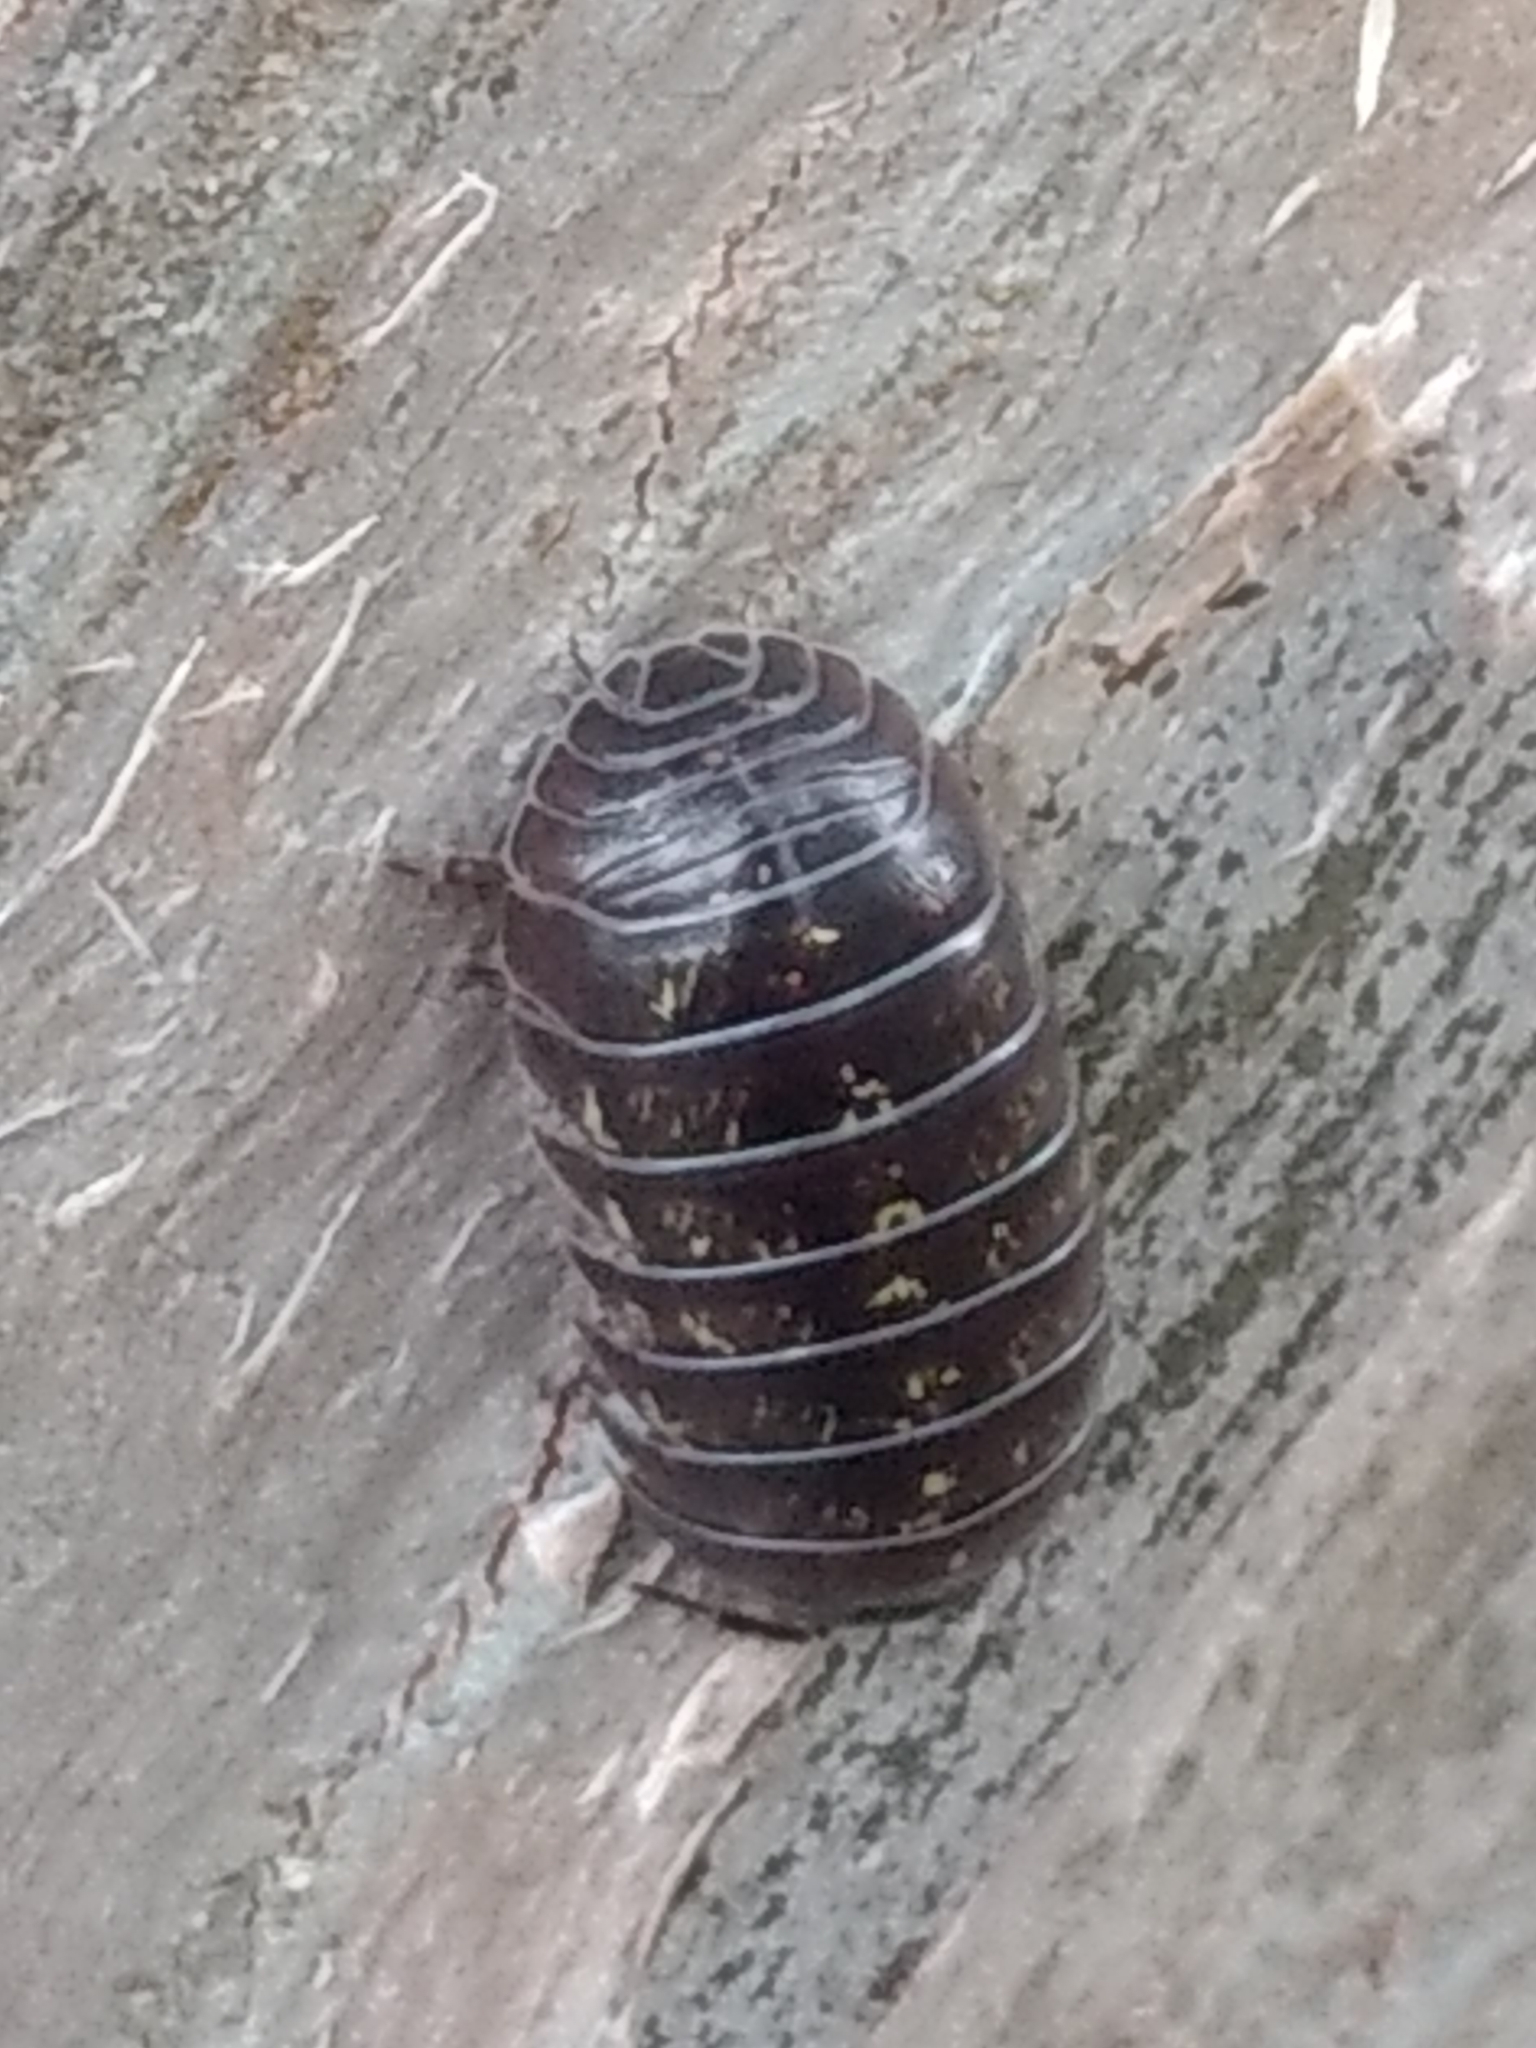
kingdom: Animalia
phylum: Arthropoda
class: Malacostraca
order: Isopoda
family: Armadillidiidae
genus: Armadillidium
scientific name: Armadillidium vulgare
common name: Common pill woodlouse
